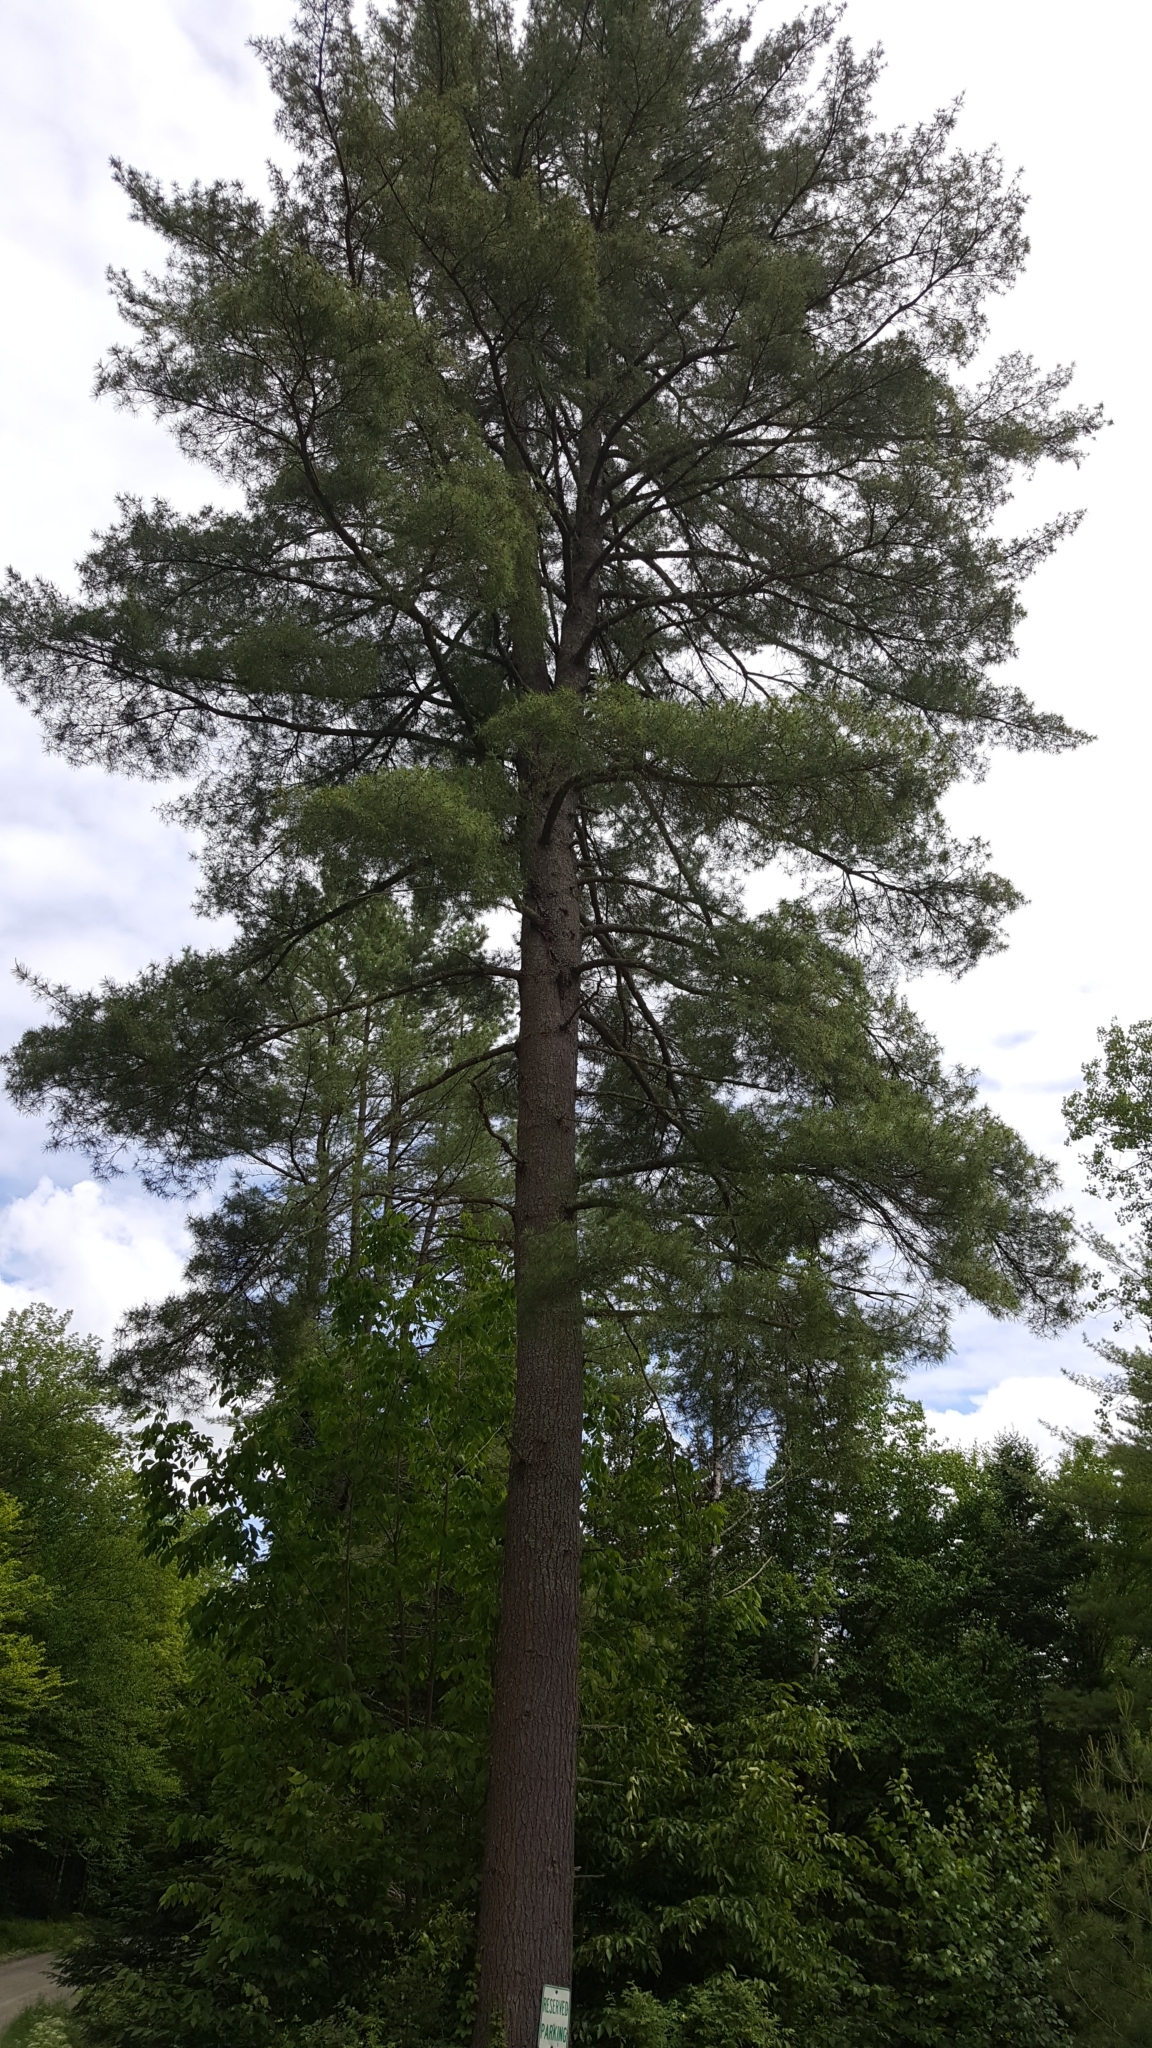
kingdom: Plantae
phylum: Tracheophyta
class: Pinopsida
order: Pinales
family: Pinaceae
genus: Pinus
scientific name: Pinus strobus
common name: Weymouth pine
